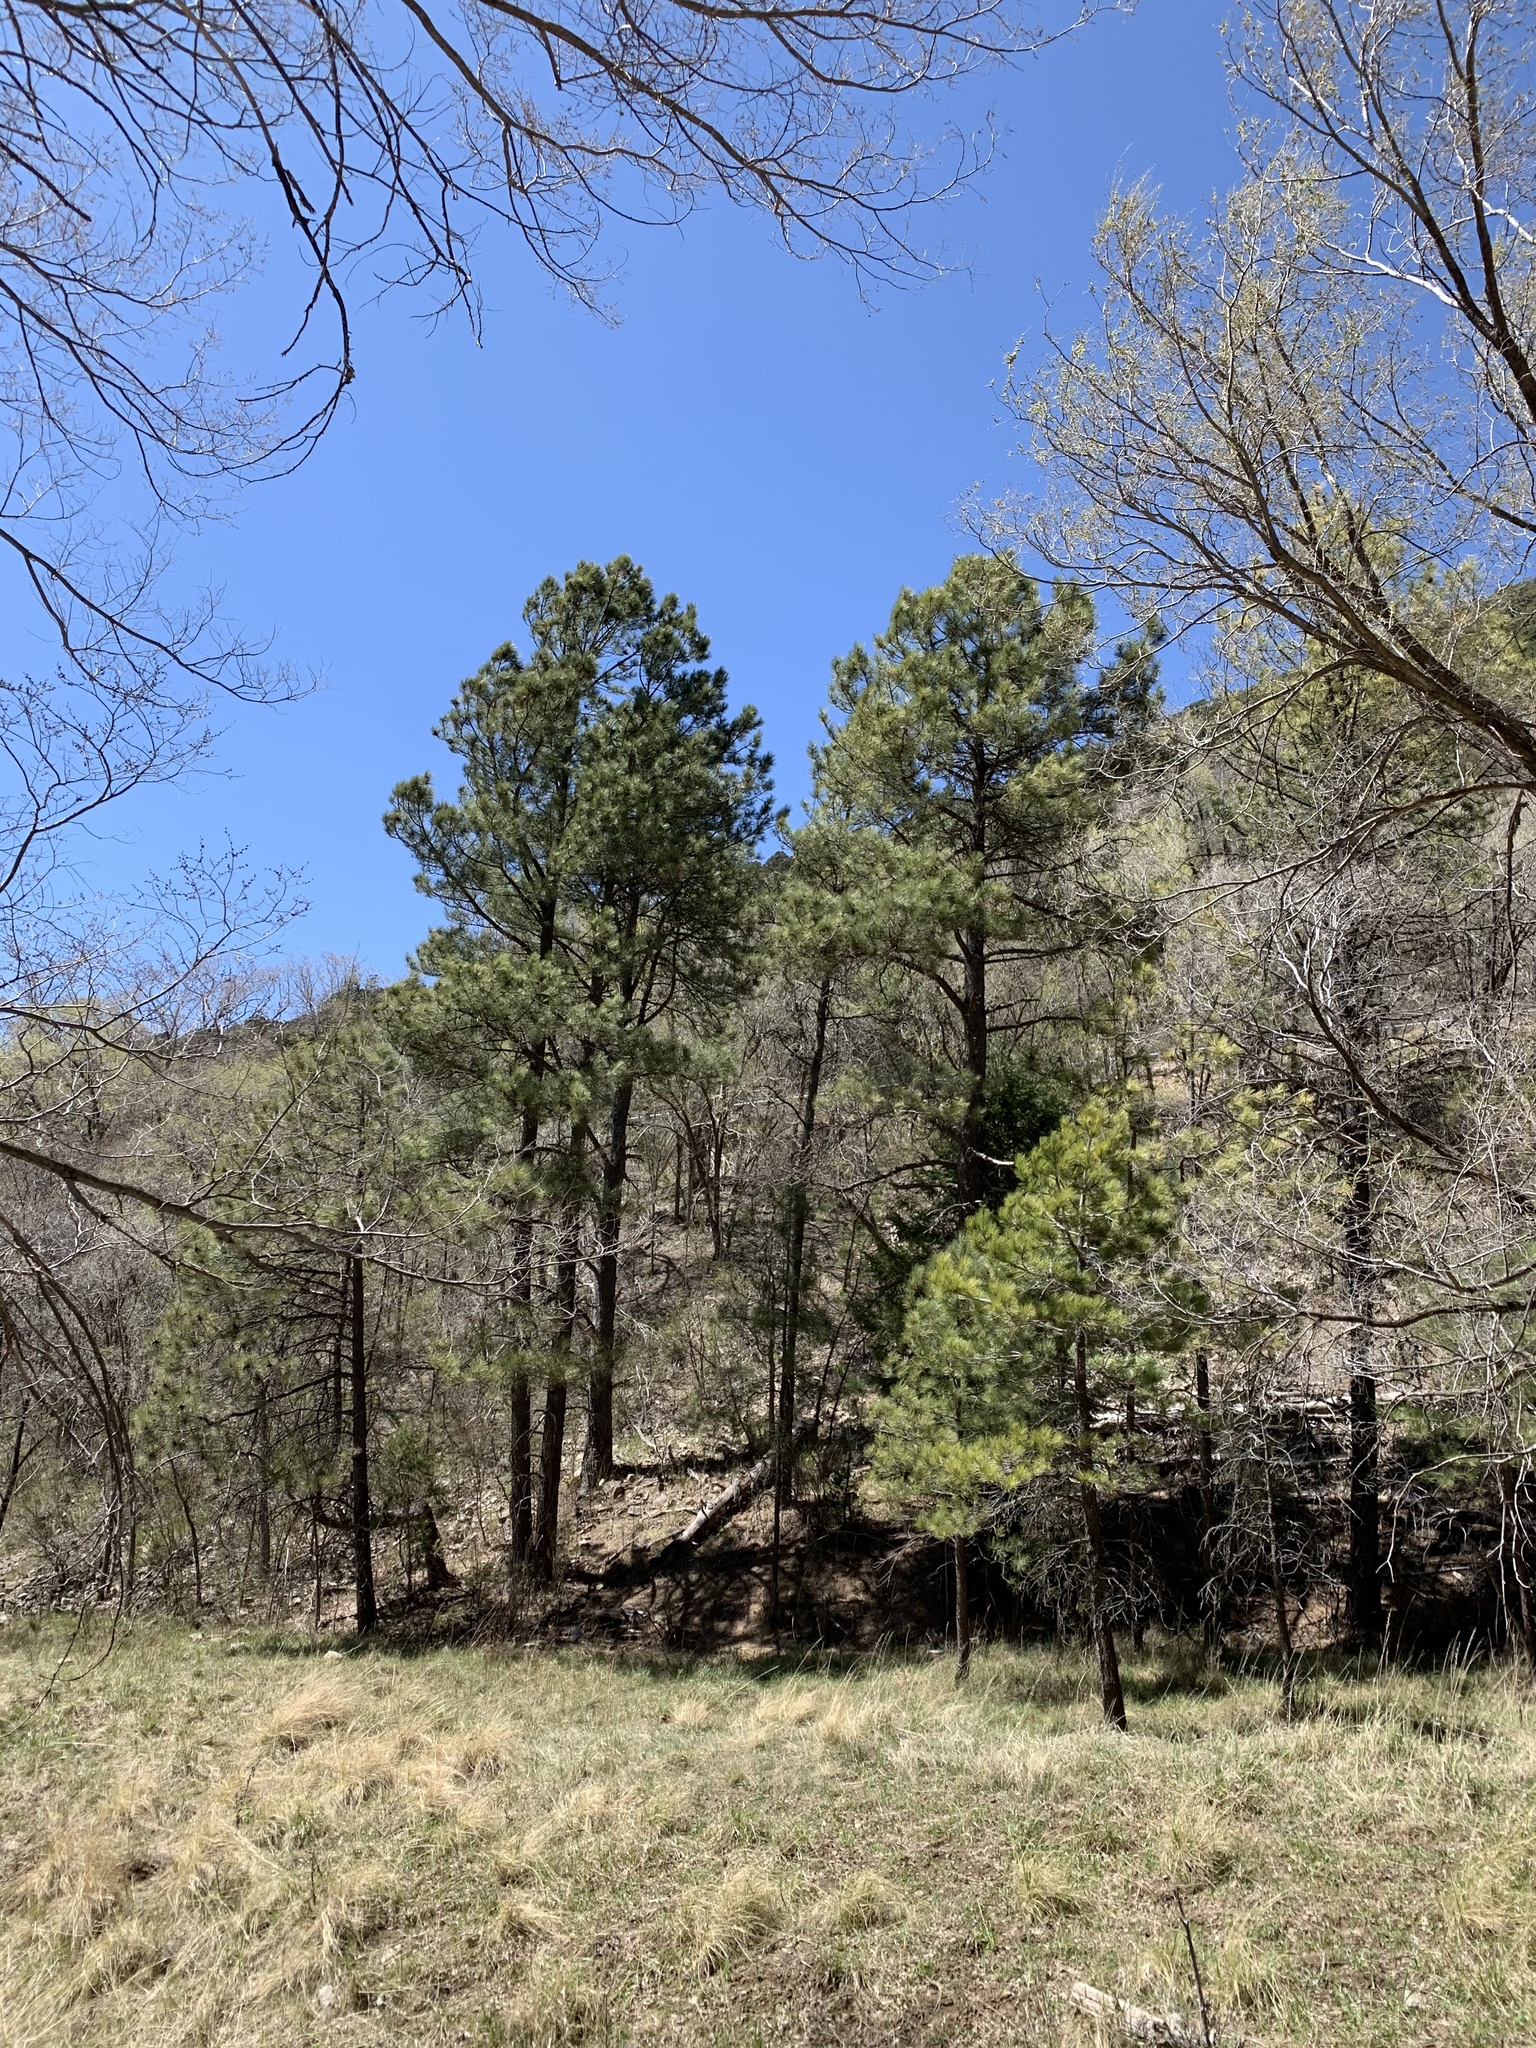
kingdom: Plantae
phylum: Tracheophyta
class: Pinopsida
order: Pinales
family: Pinaceae
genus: Pinus
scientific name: Pinus ponderosa
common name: Western yellow-pine
